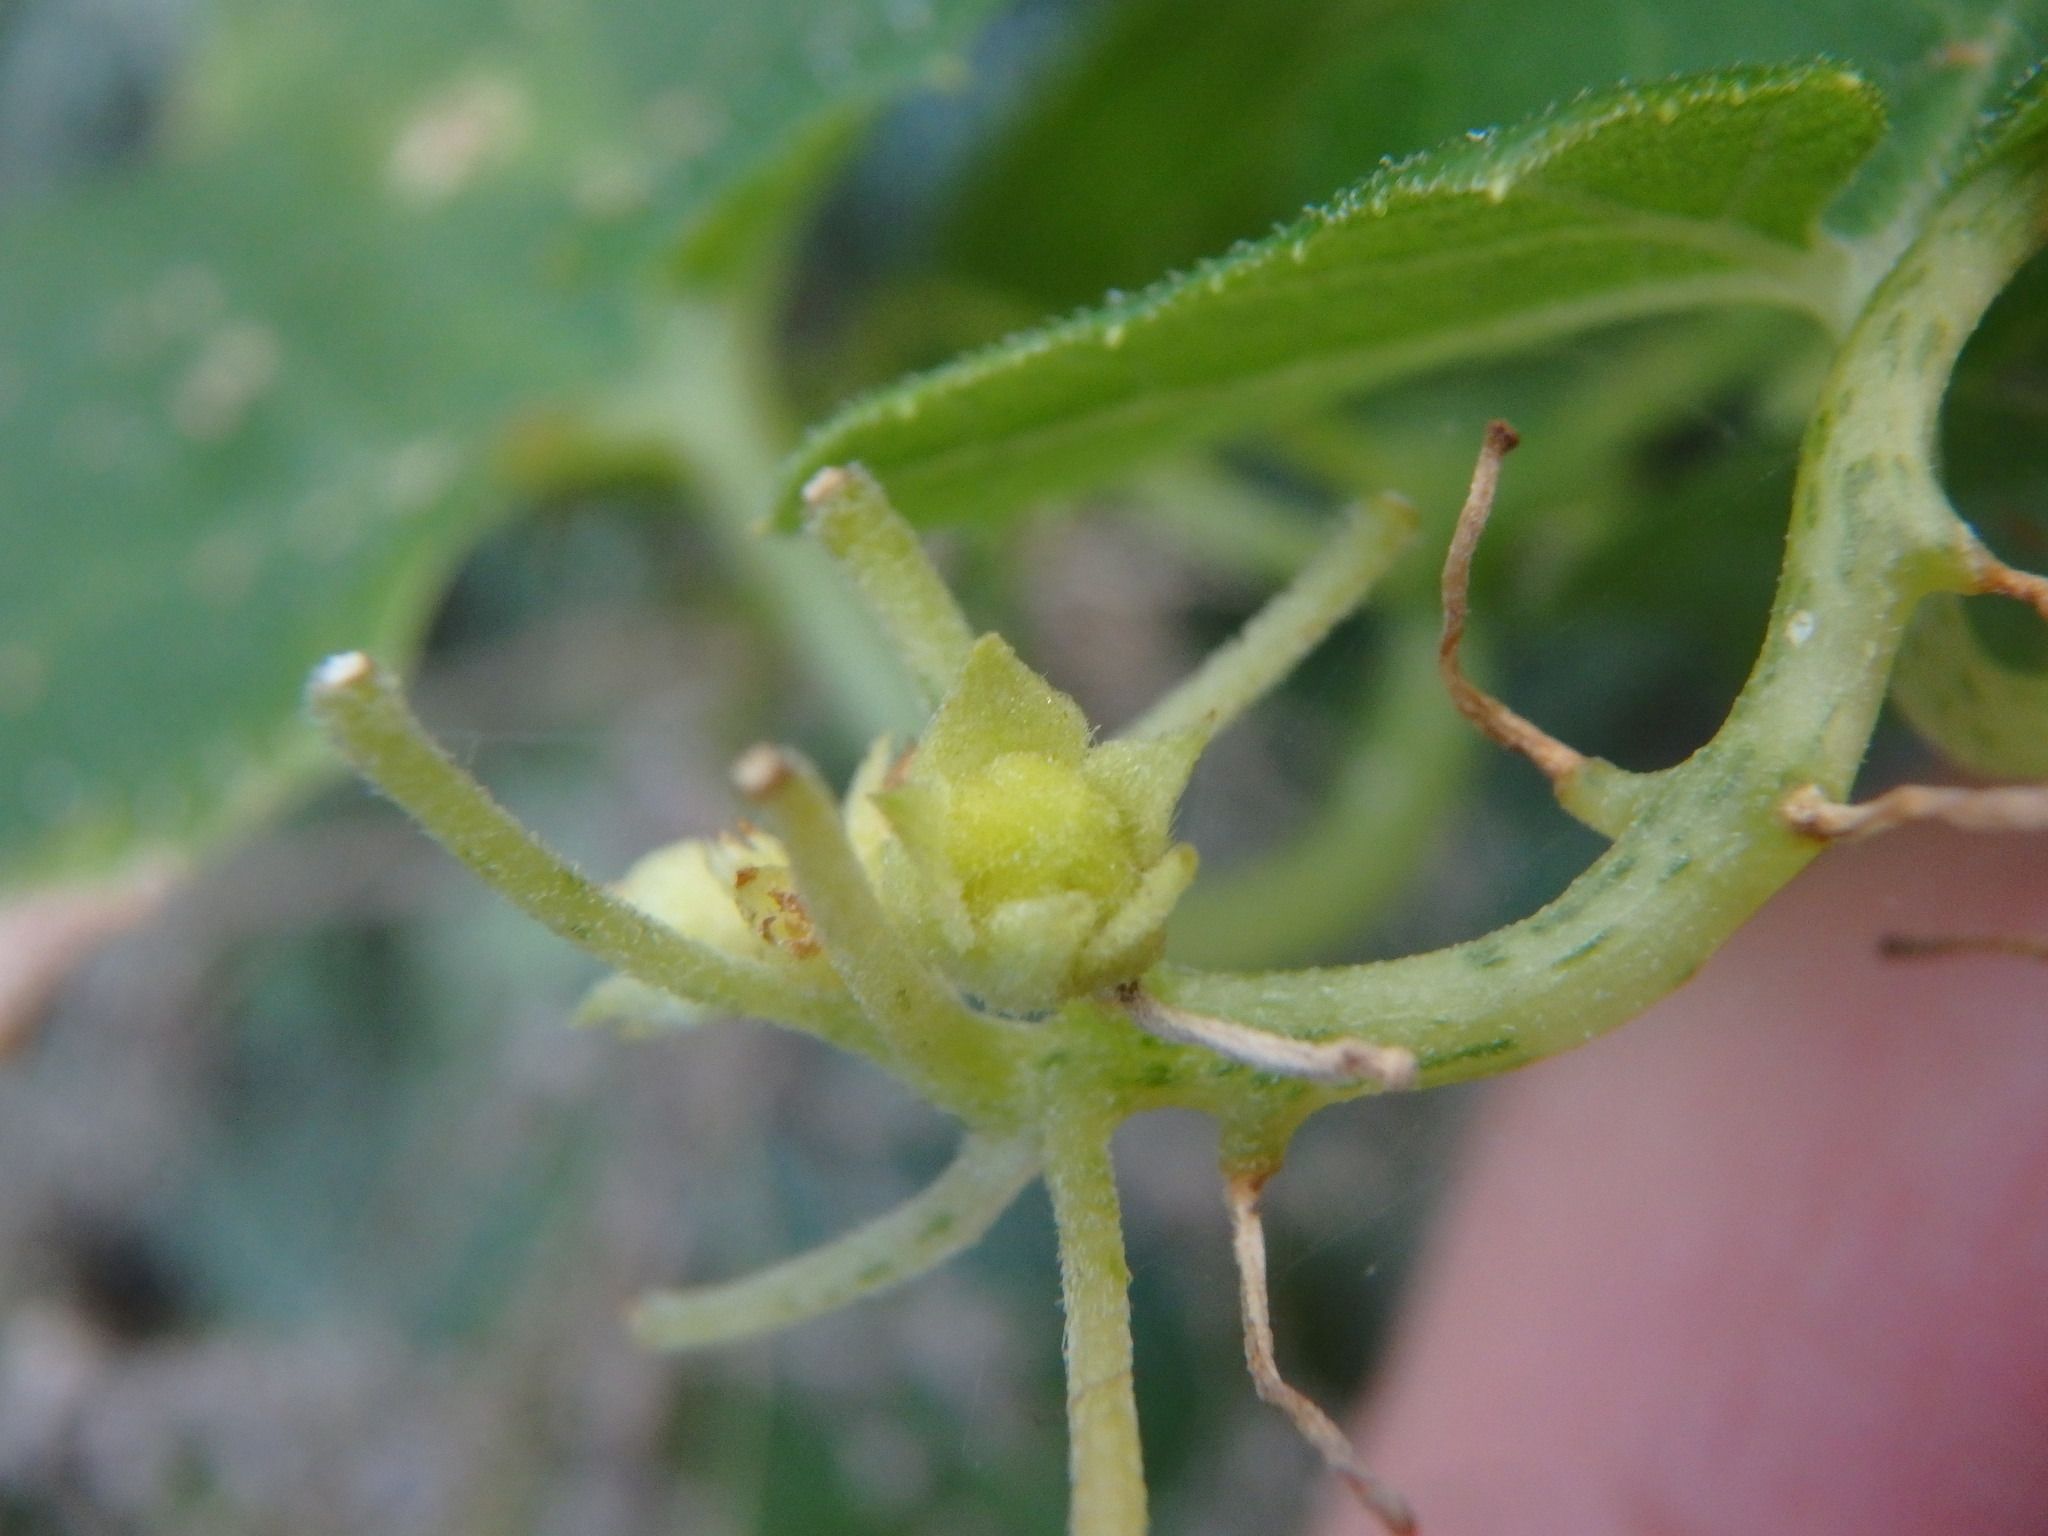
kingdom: Plantae
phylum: Tracheophyta
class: Magnoliopsida
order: Cucurbitales
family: Cucurbitaceae
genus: Bryonia
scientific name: Bryonia verrucosa
